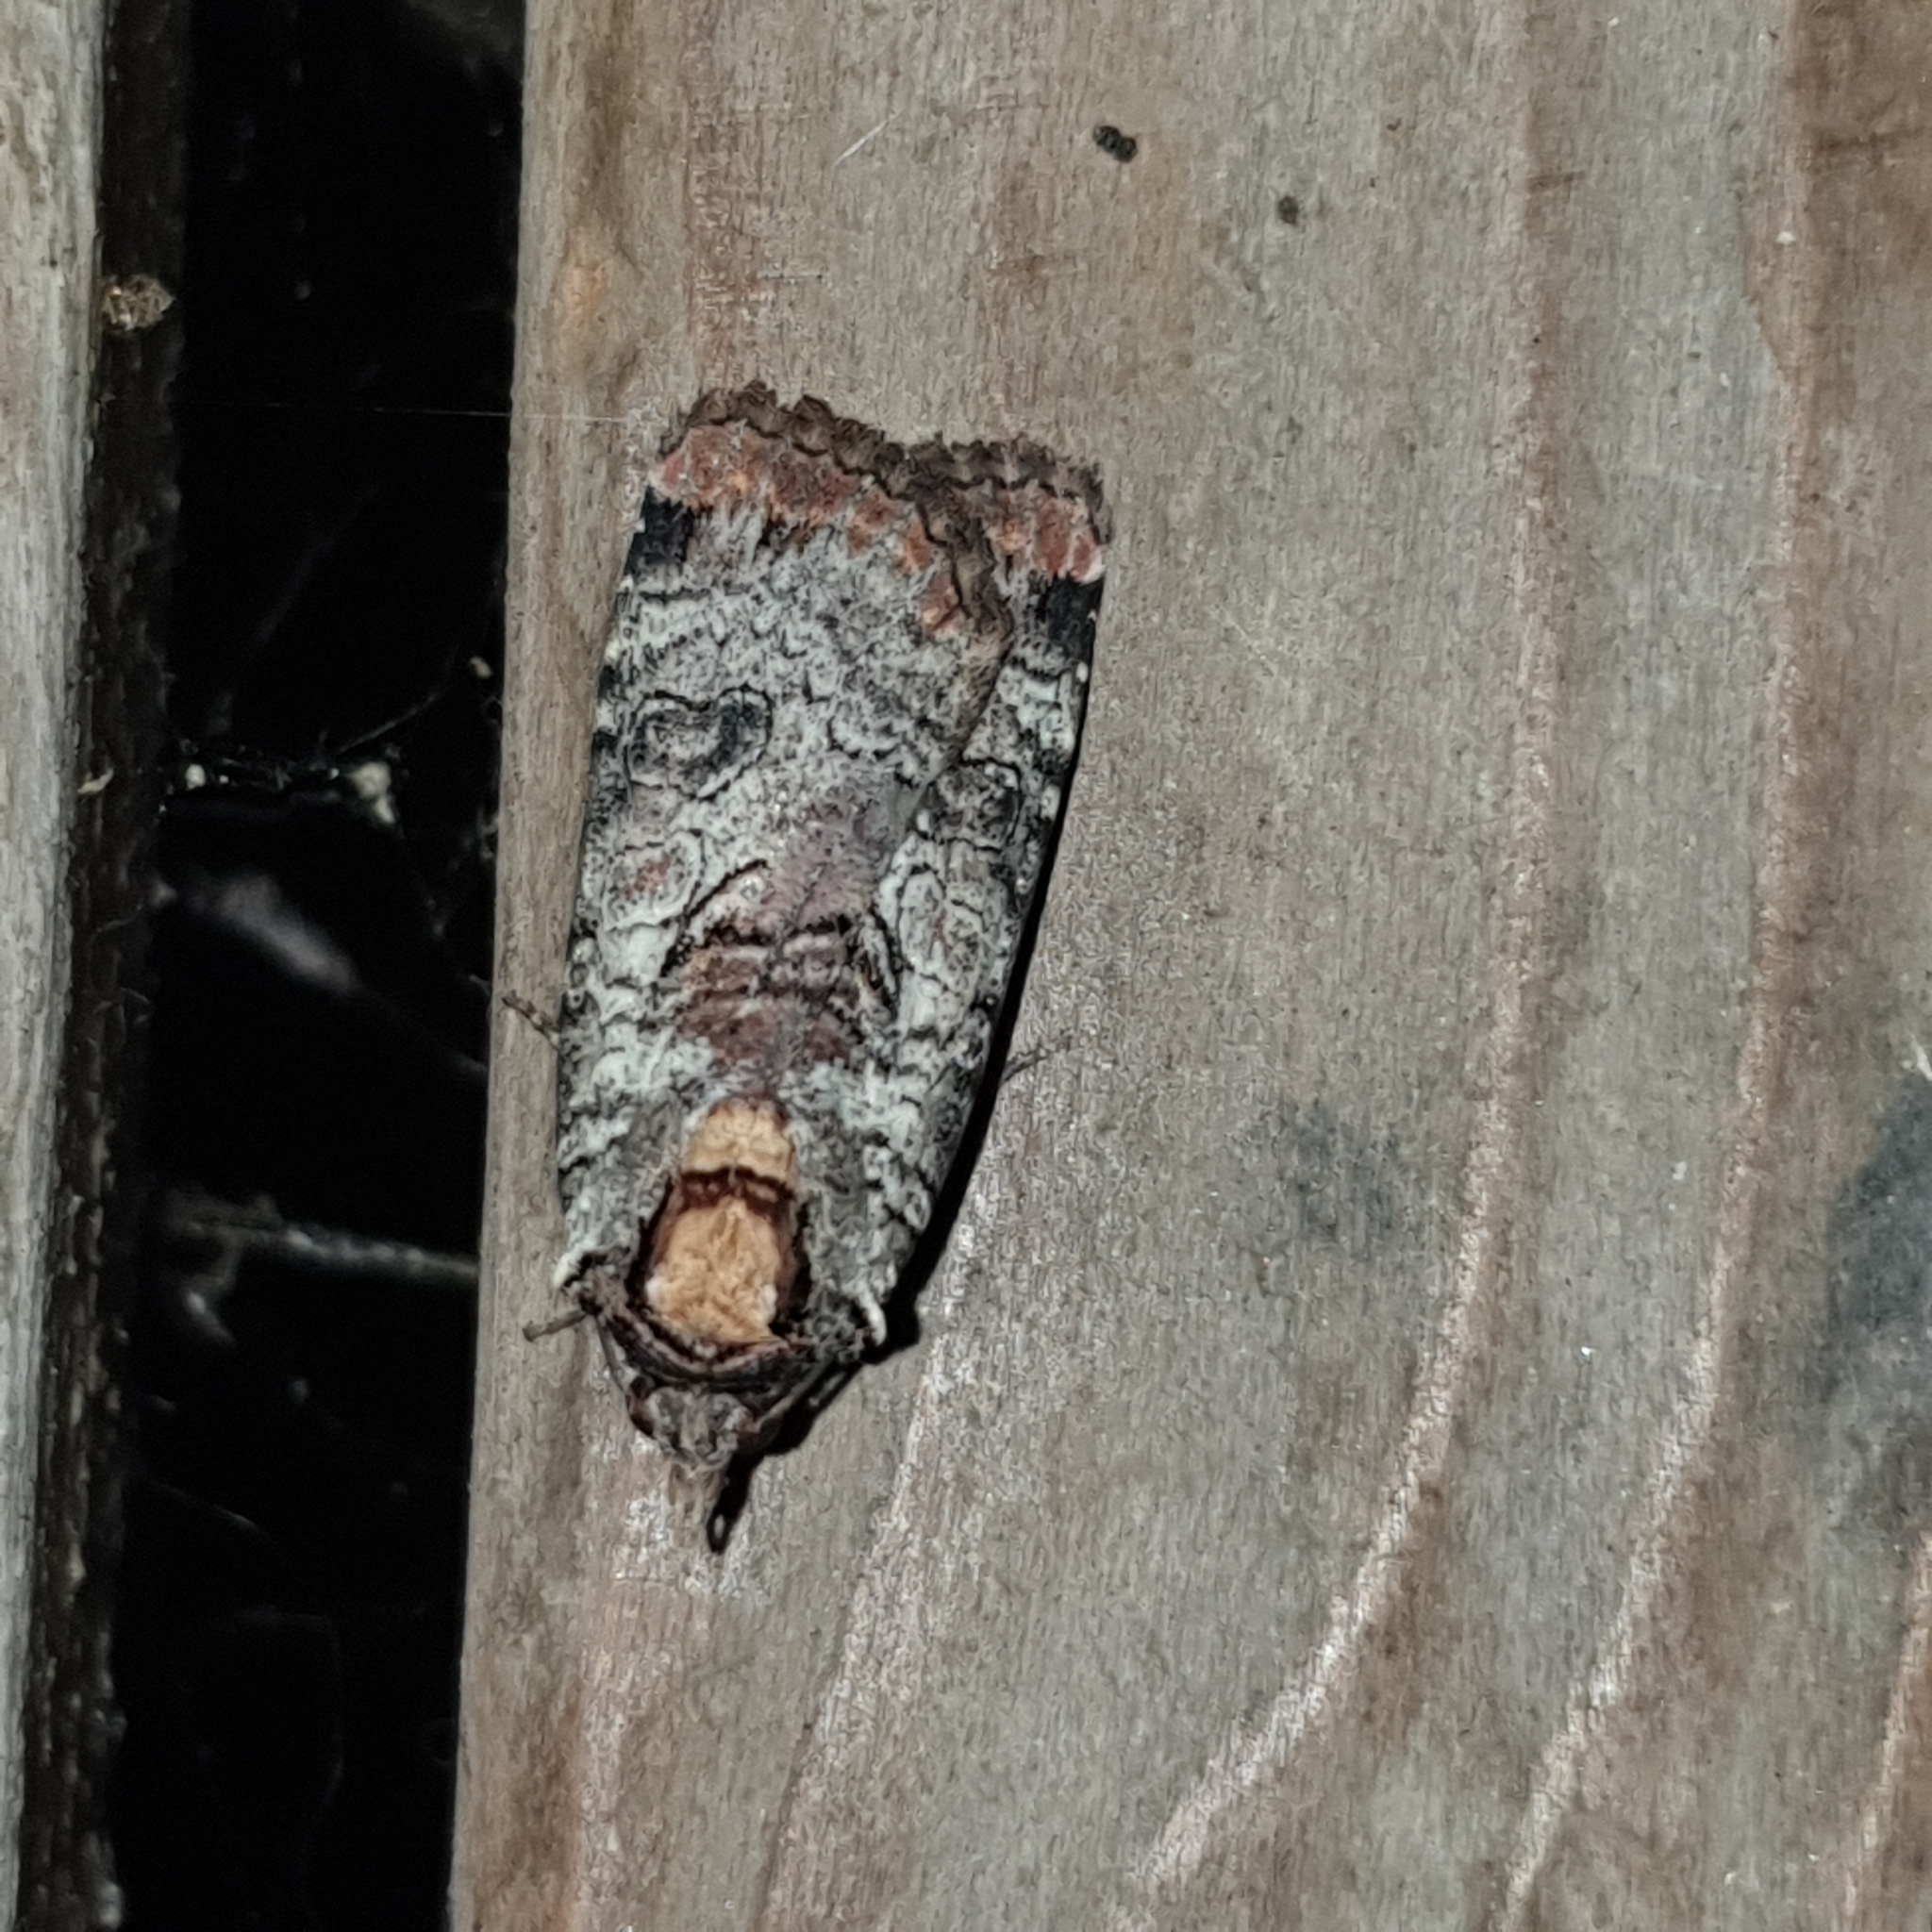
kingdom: Animalia
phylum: Arthropoda
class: Insecta
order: Lepidoptera
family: Noctuidae
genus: Epilecta
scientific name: Epilecta linogrisea
